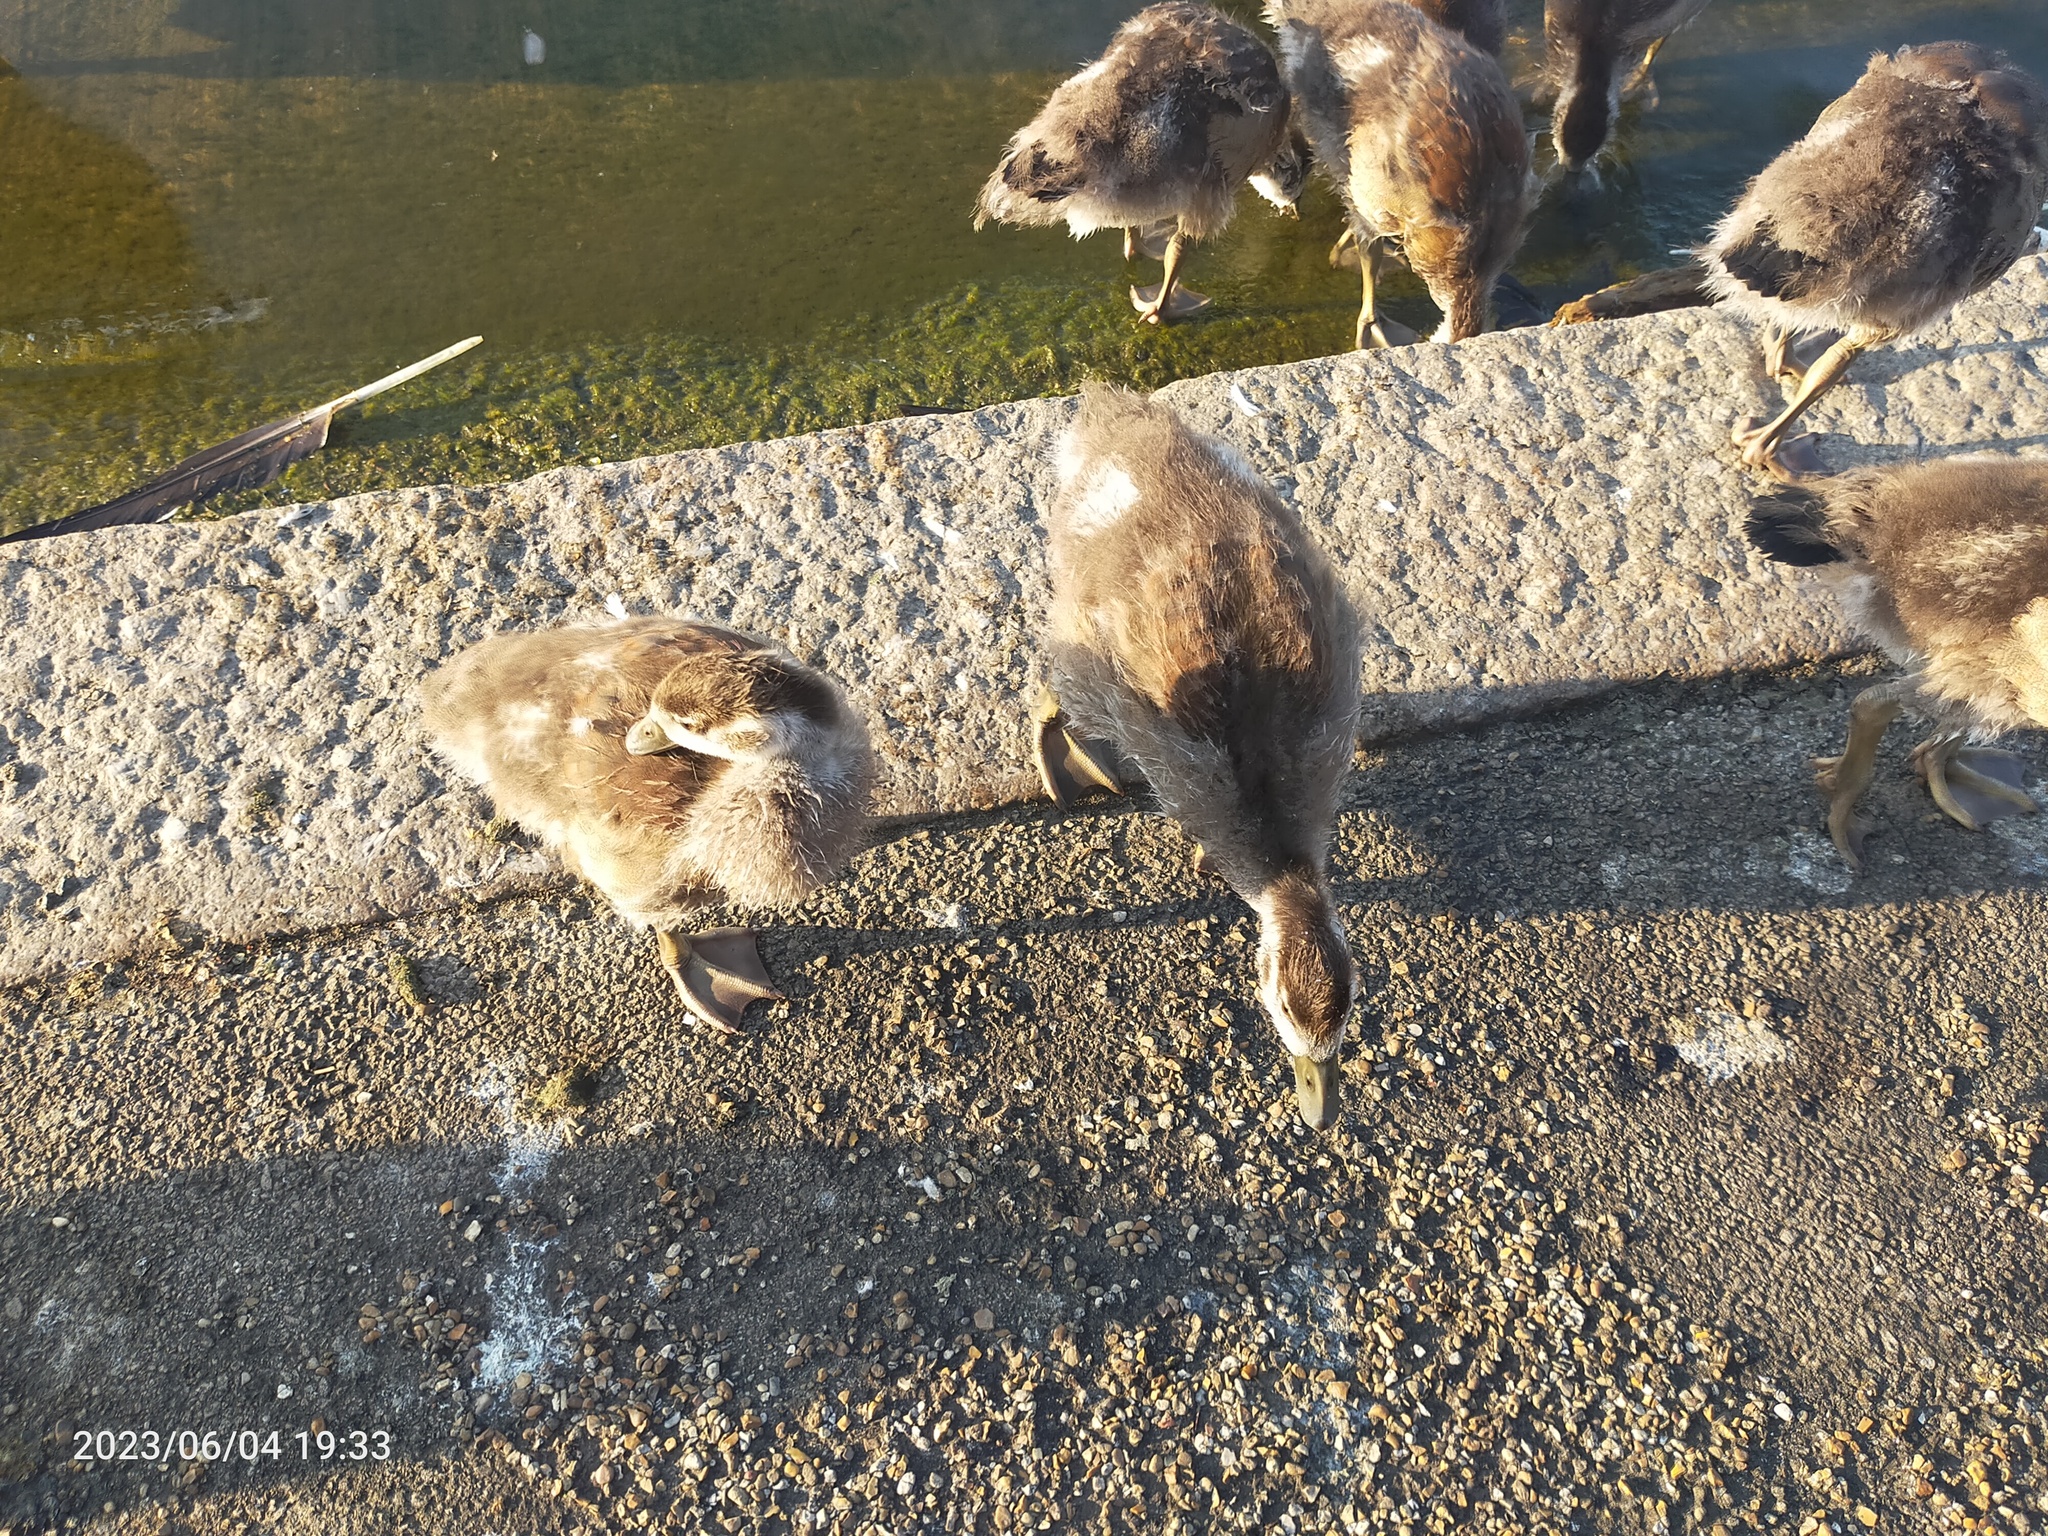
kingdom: Animalia
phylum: Chordata
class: Aves
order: Anseriformes
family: Anatidae
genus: Alopochen
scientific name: Alopochen aegyptiaca
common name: Egyptian goose
